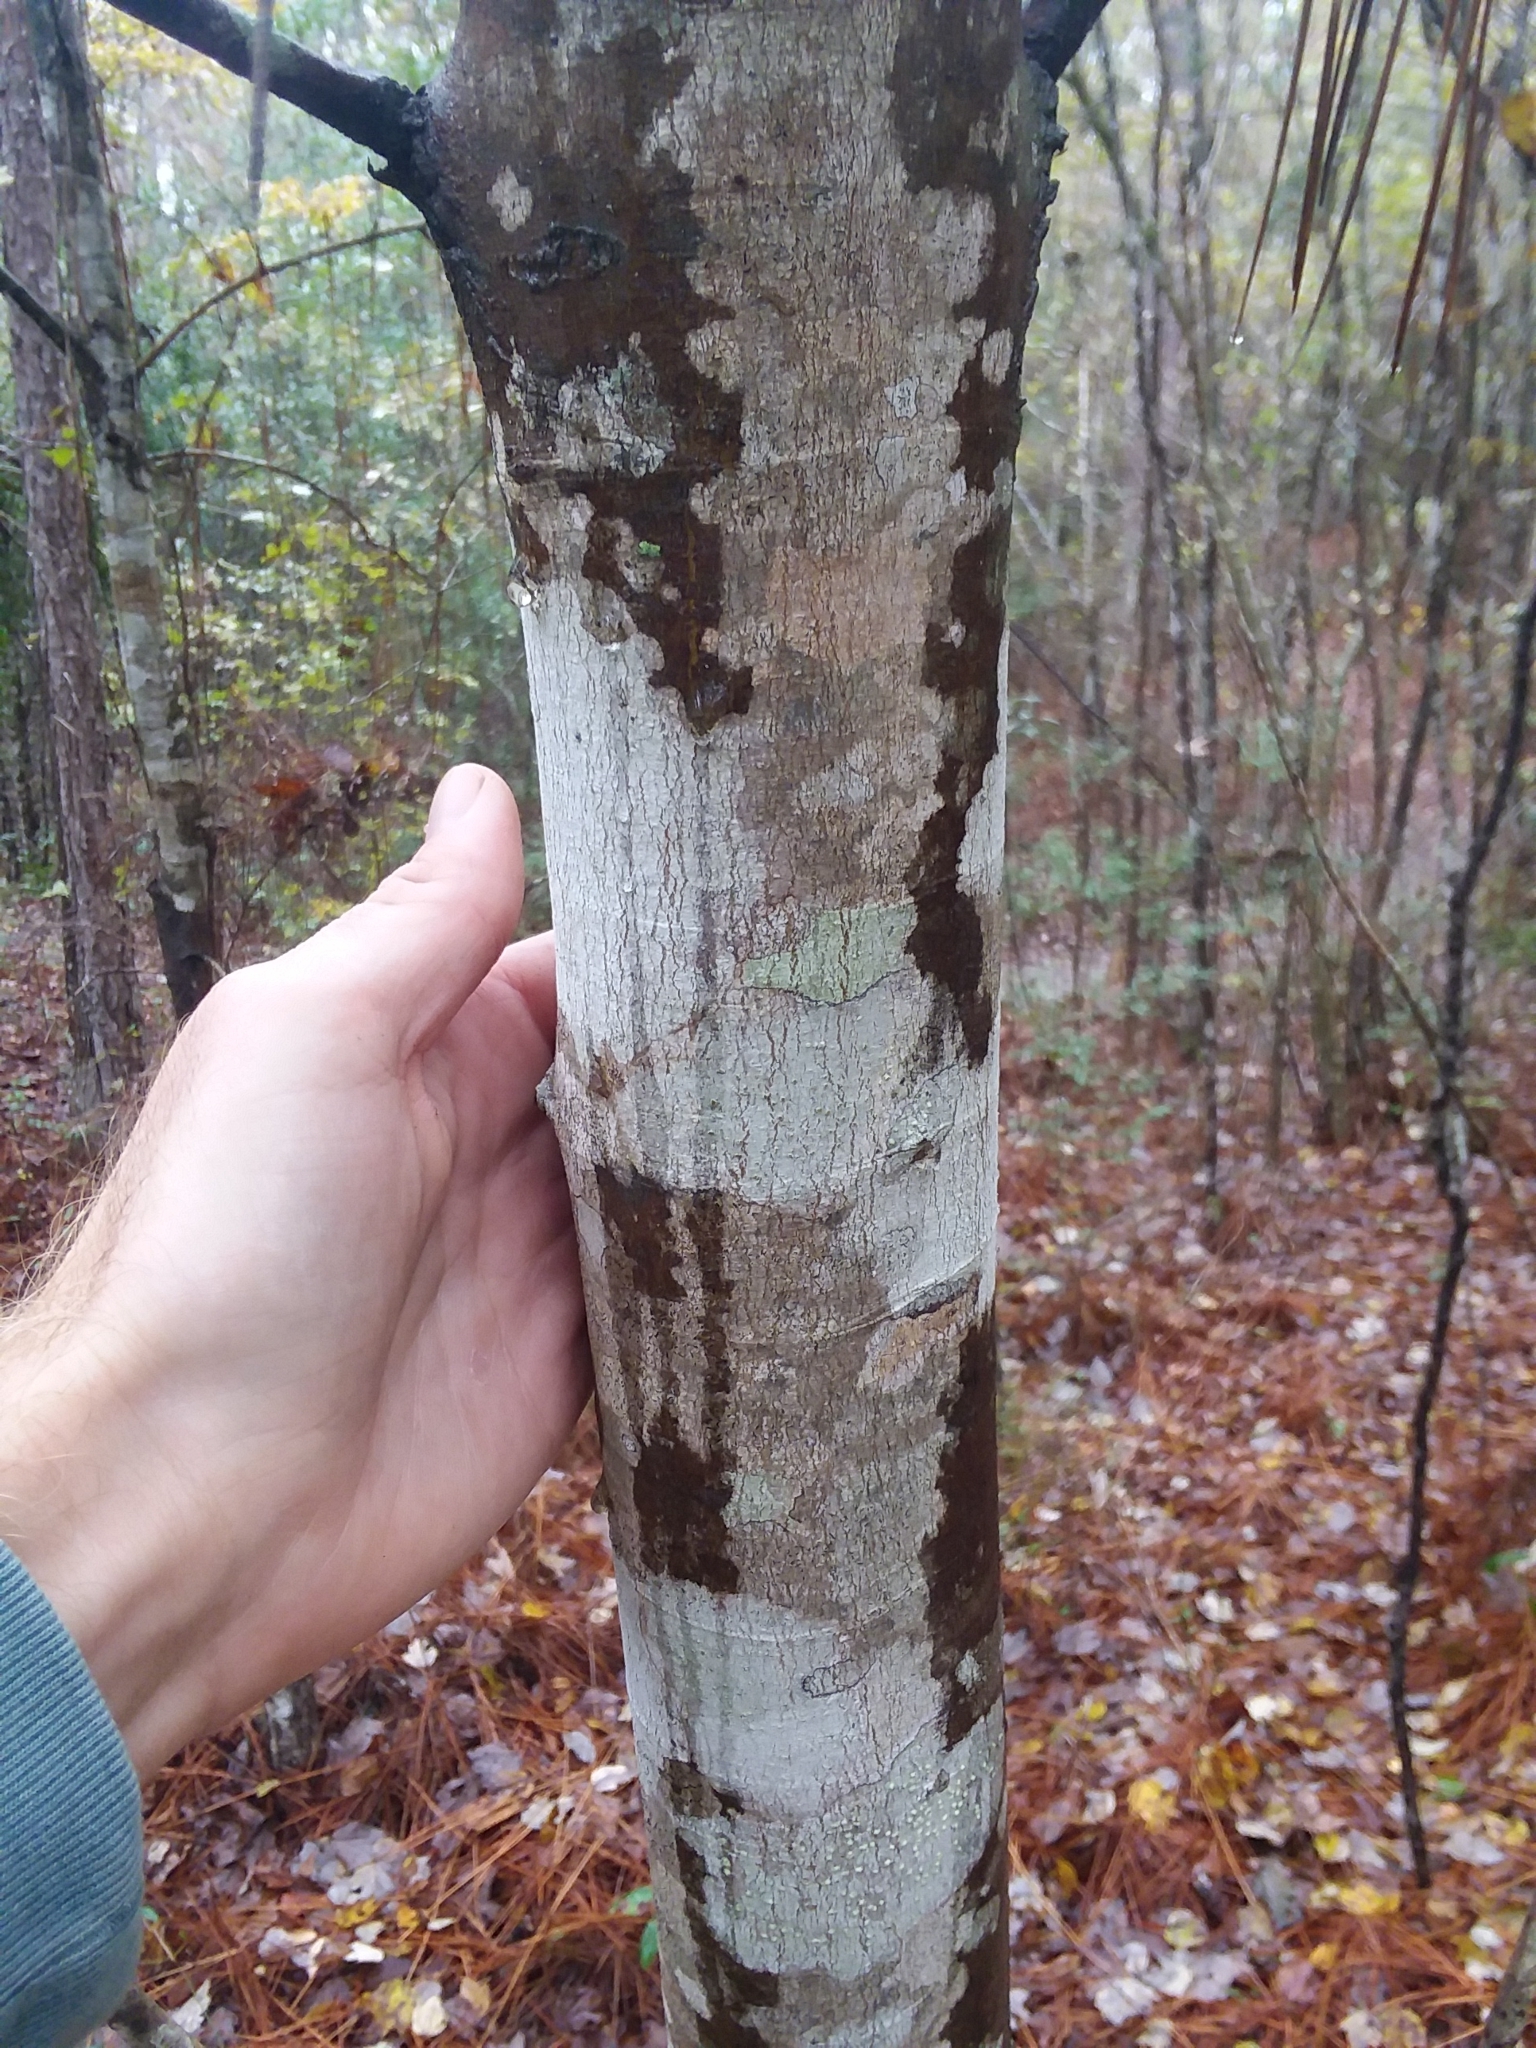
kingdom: Plantae
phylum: Tracheophyta
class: Magnoliopsida
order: Sapindales
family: Sapindaceae
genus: Acer
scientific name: Acer rubrum
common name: Red maple
